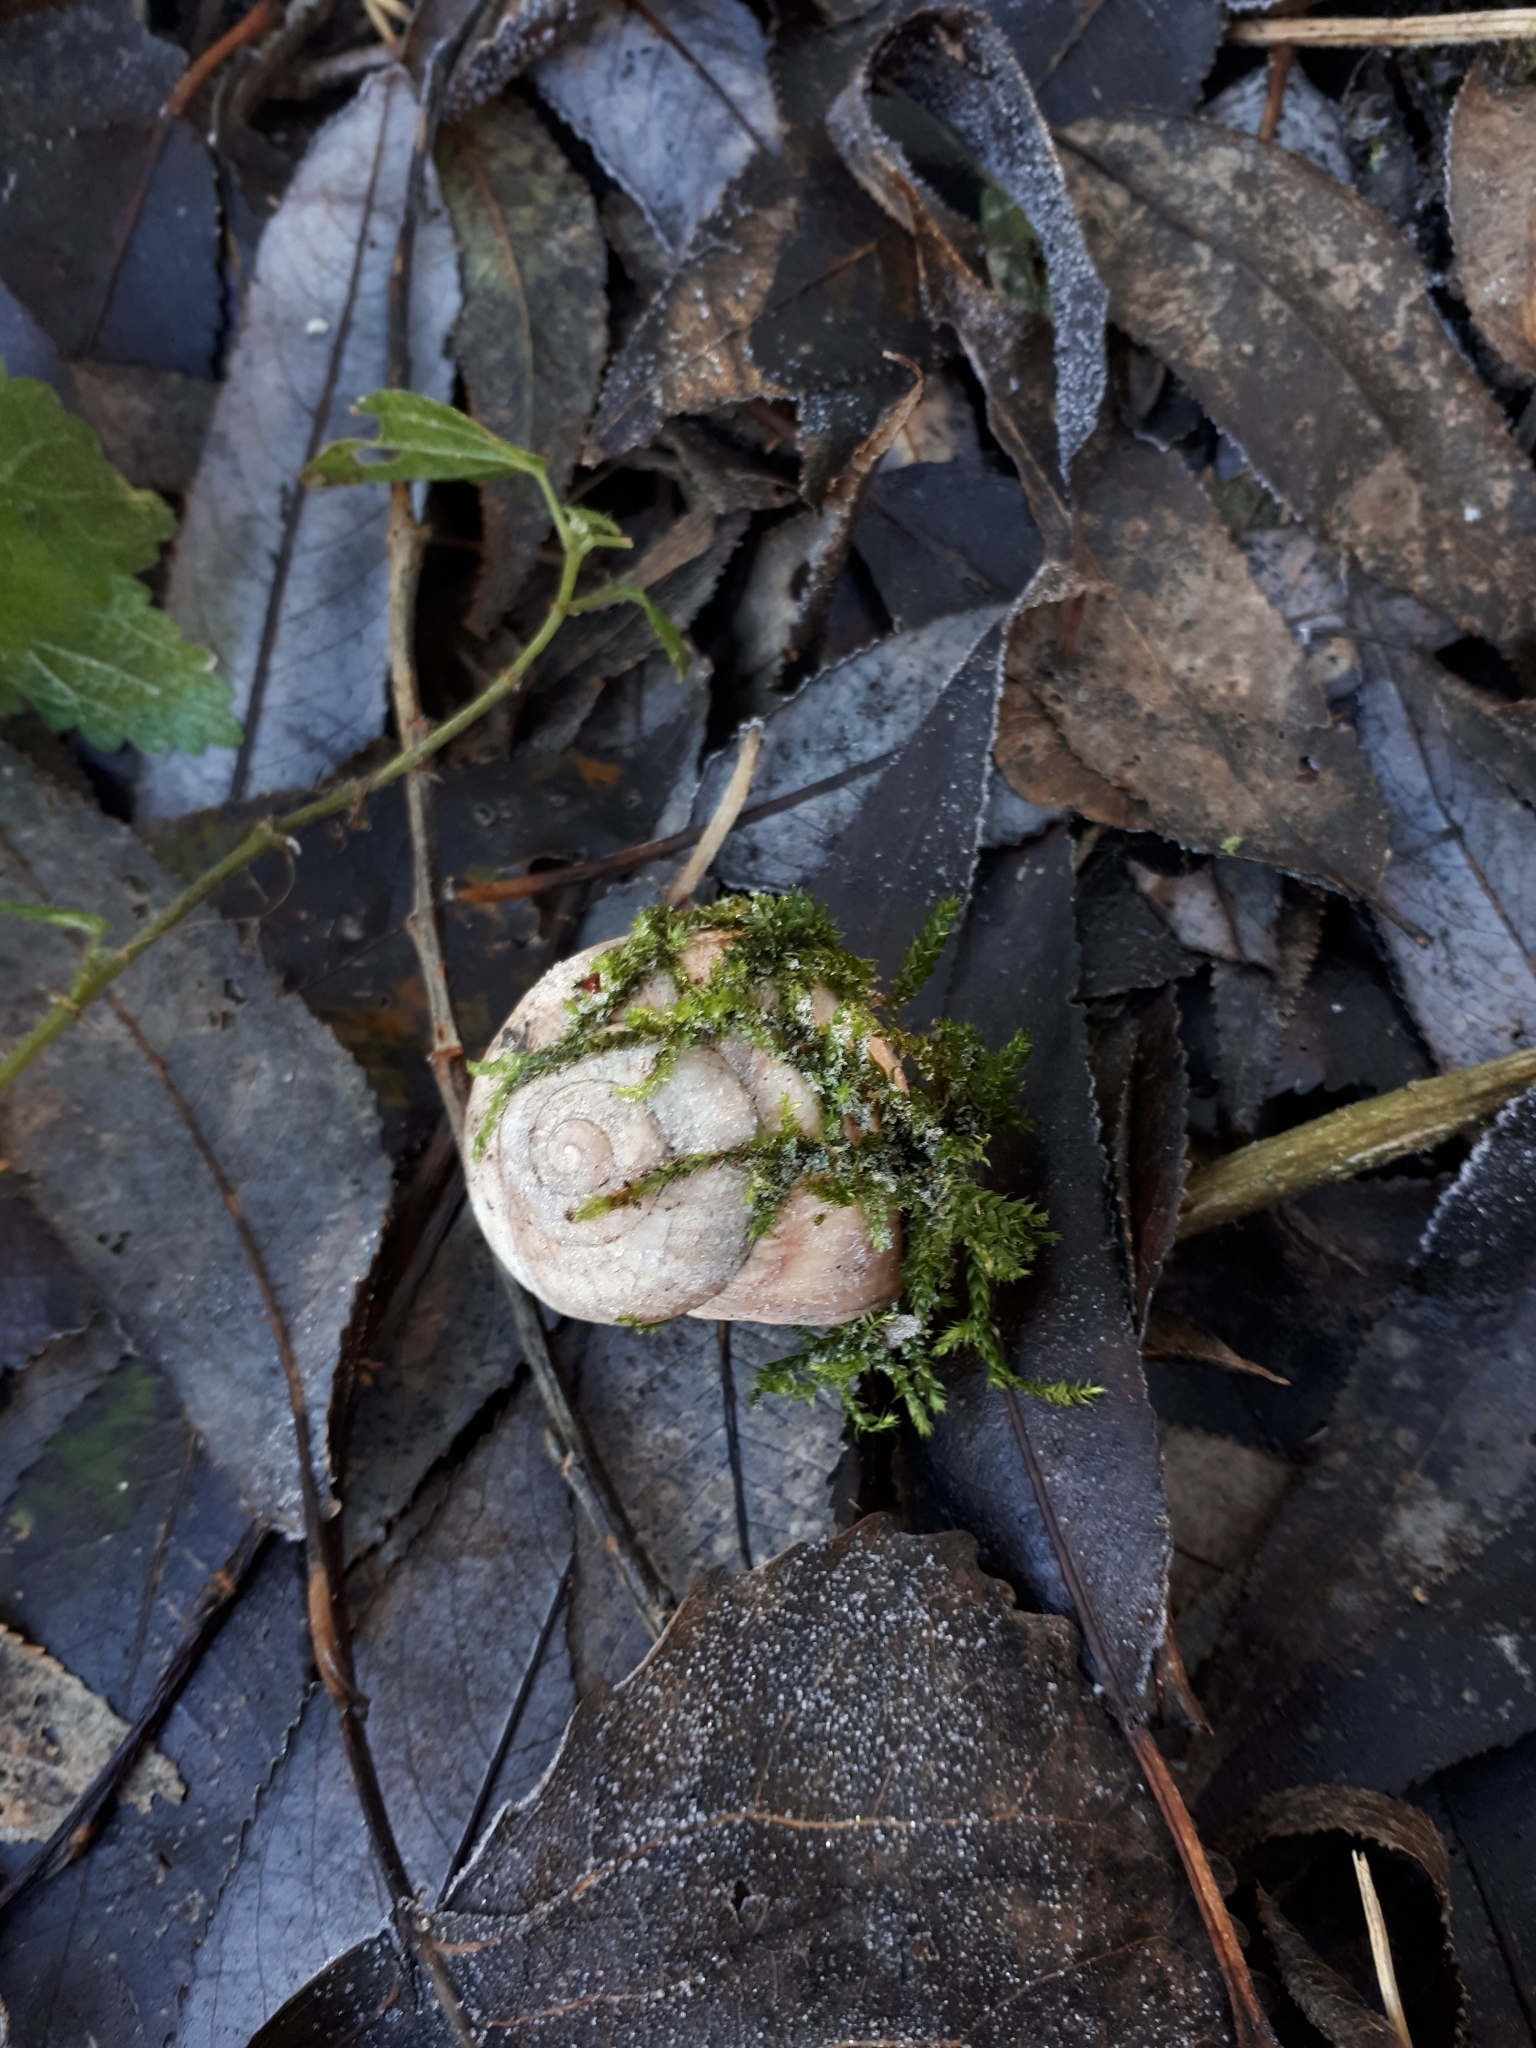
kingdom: Animalia
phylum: Mollusca
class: Gastropoda
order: Stylommatophora
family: Helicidae
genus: Helix
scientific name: Helix pomatia
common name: Roman snail
